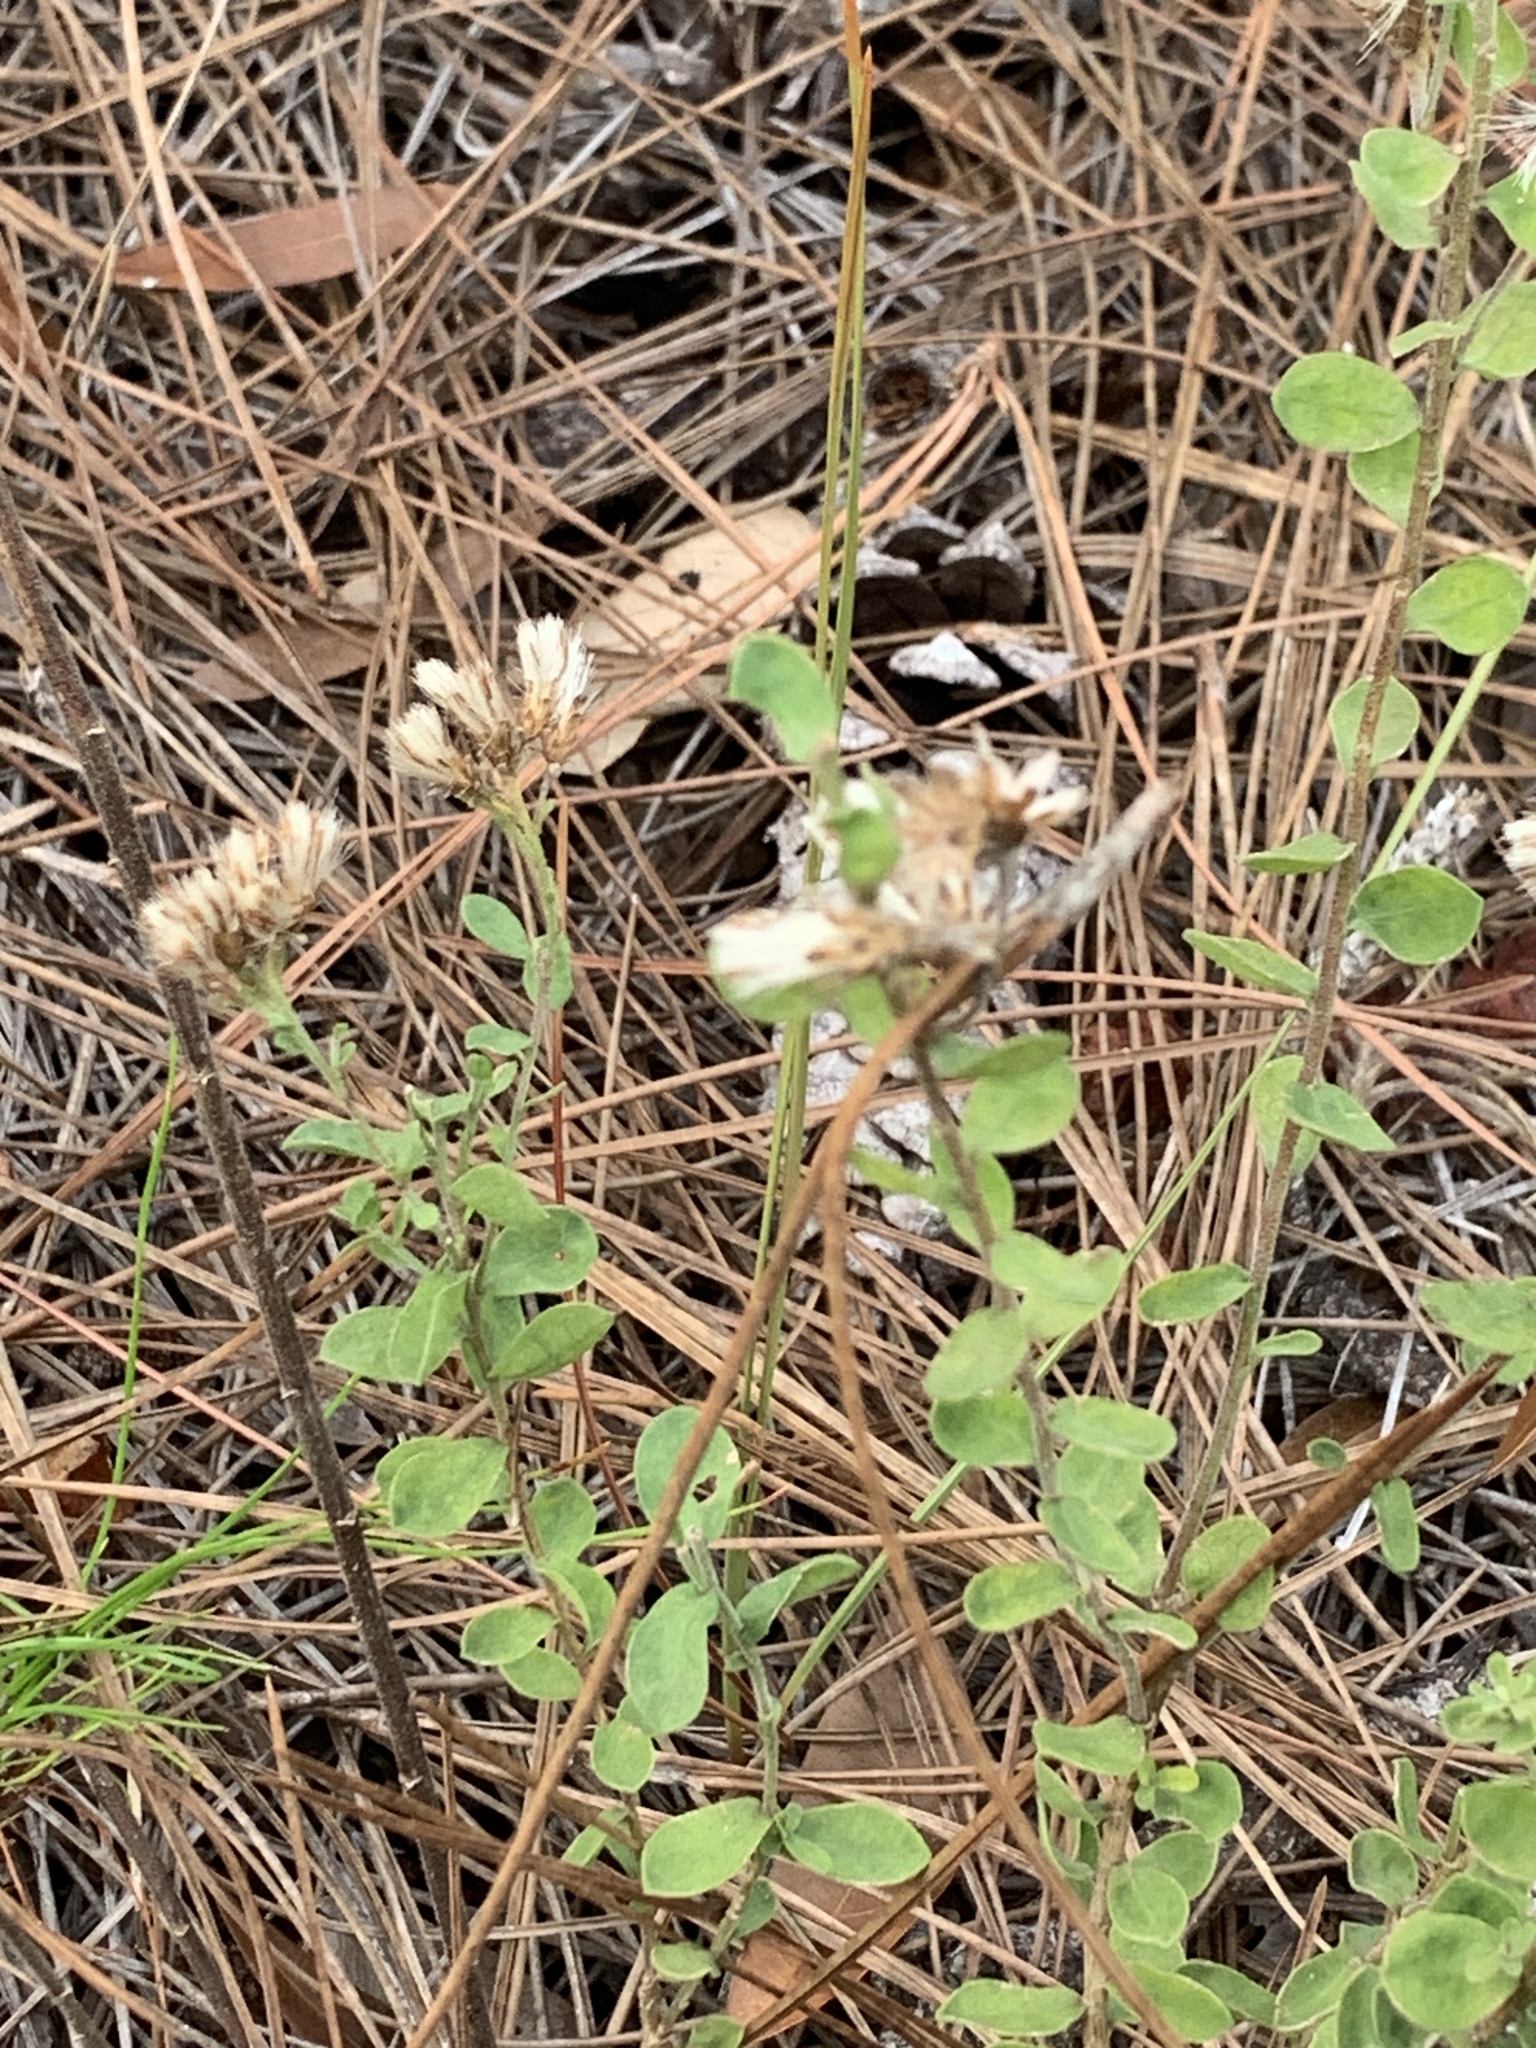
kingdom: Plantae
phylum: Tracheophyta
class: Magnoliopsida
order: Asterales
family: Asteraceae
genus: Sericocarpus
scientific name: Sericocarpus tortifolius
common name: Dixie aster
